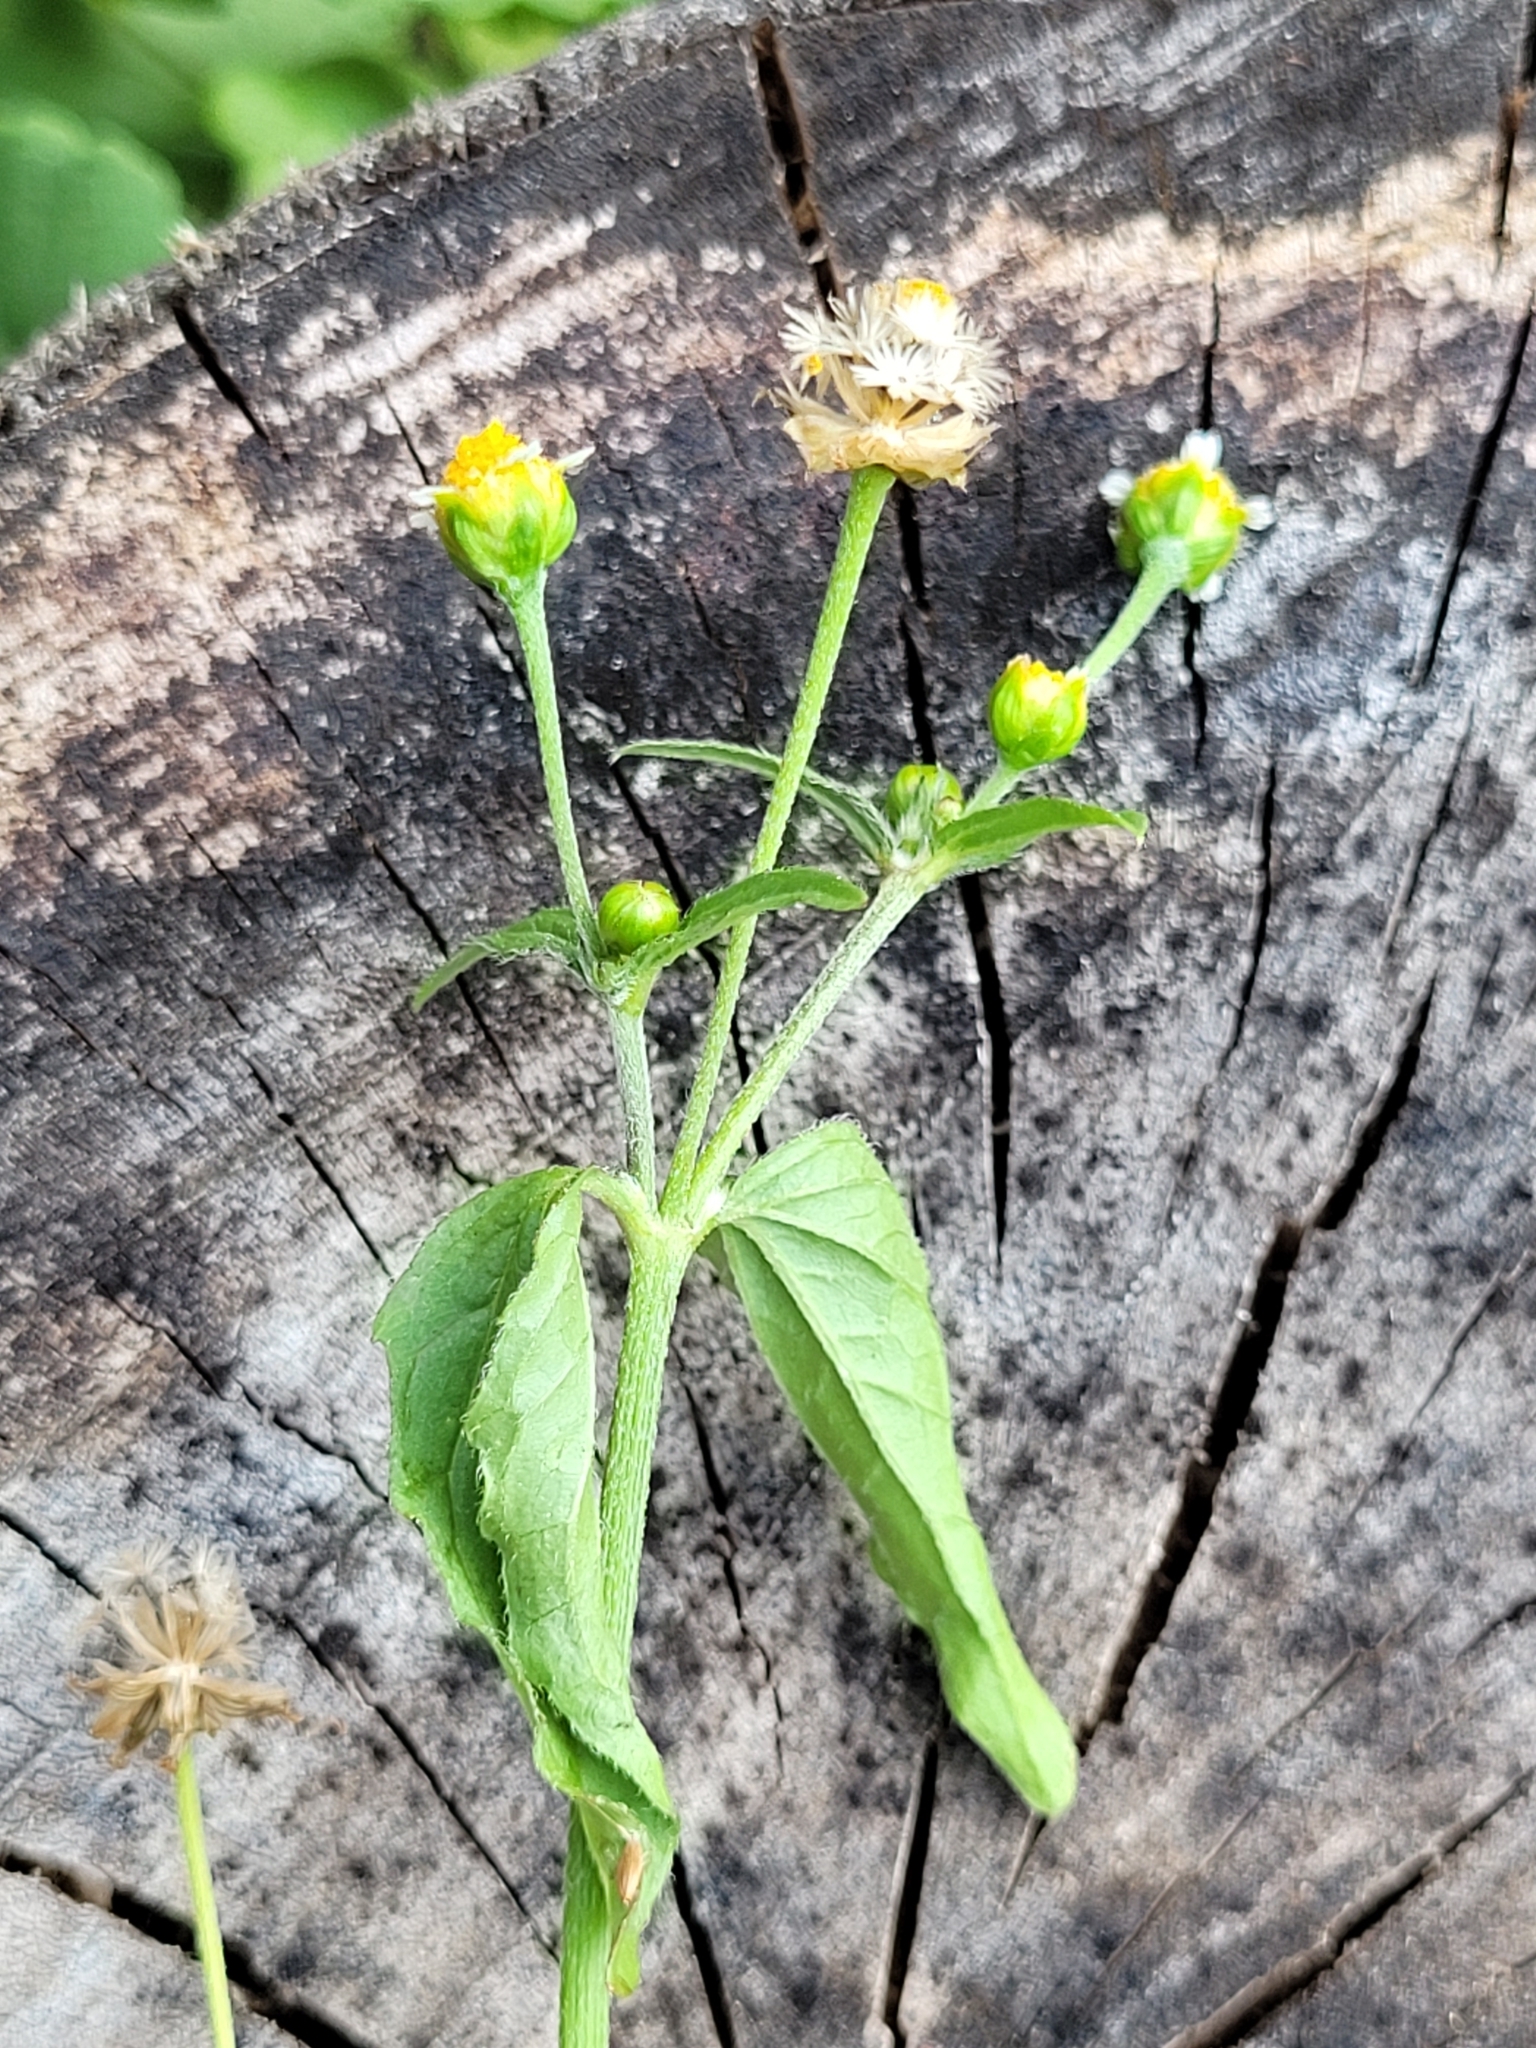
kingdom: Plantae
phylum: Tracheophyta
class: Magnoliopsida
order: Asterales
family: Asteraceae
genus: Galinsoga
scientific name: Galinsoga parviflora
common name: Gallant soldier
